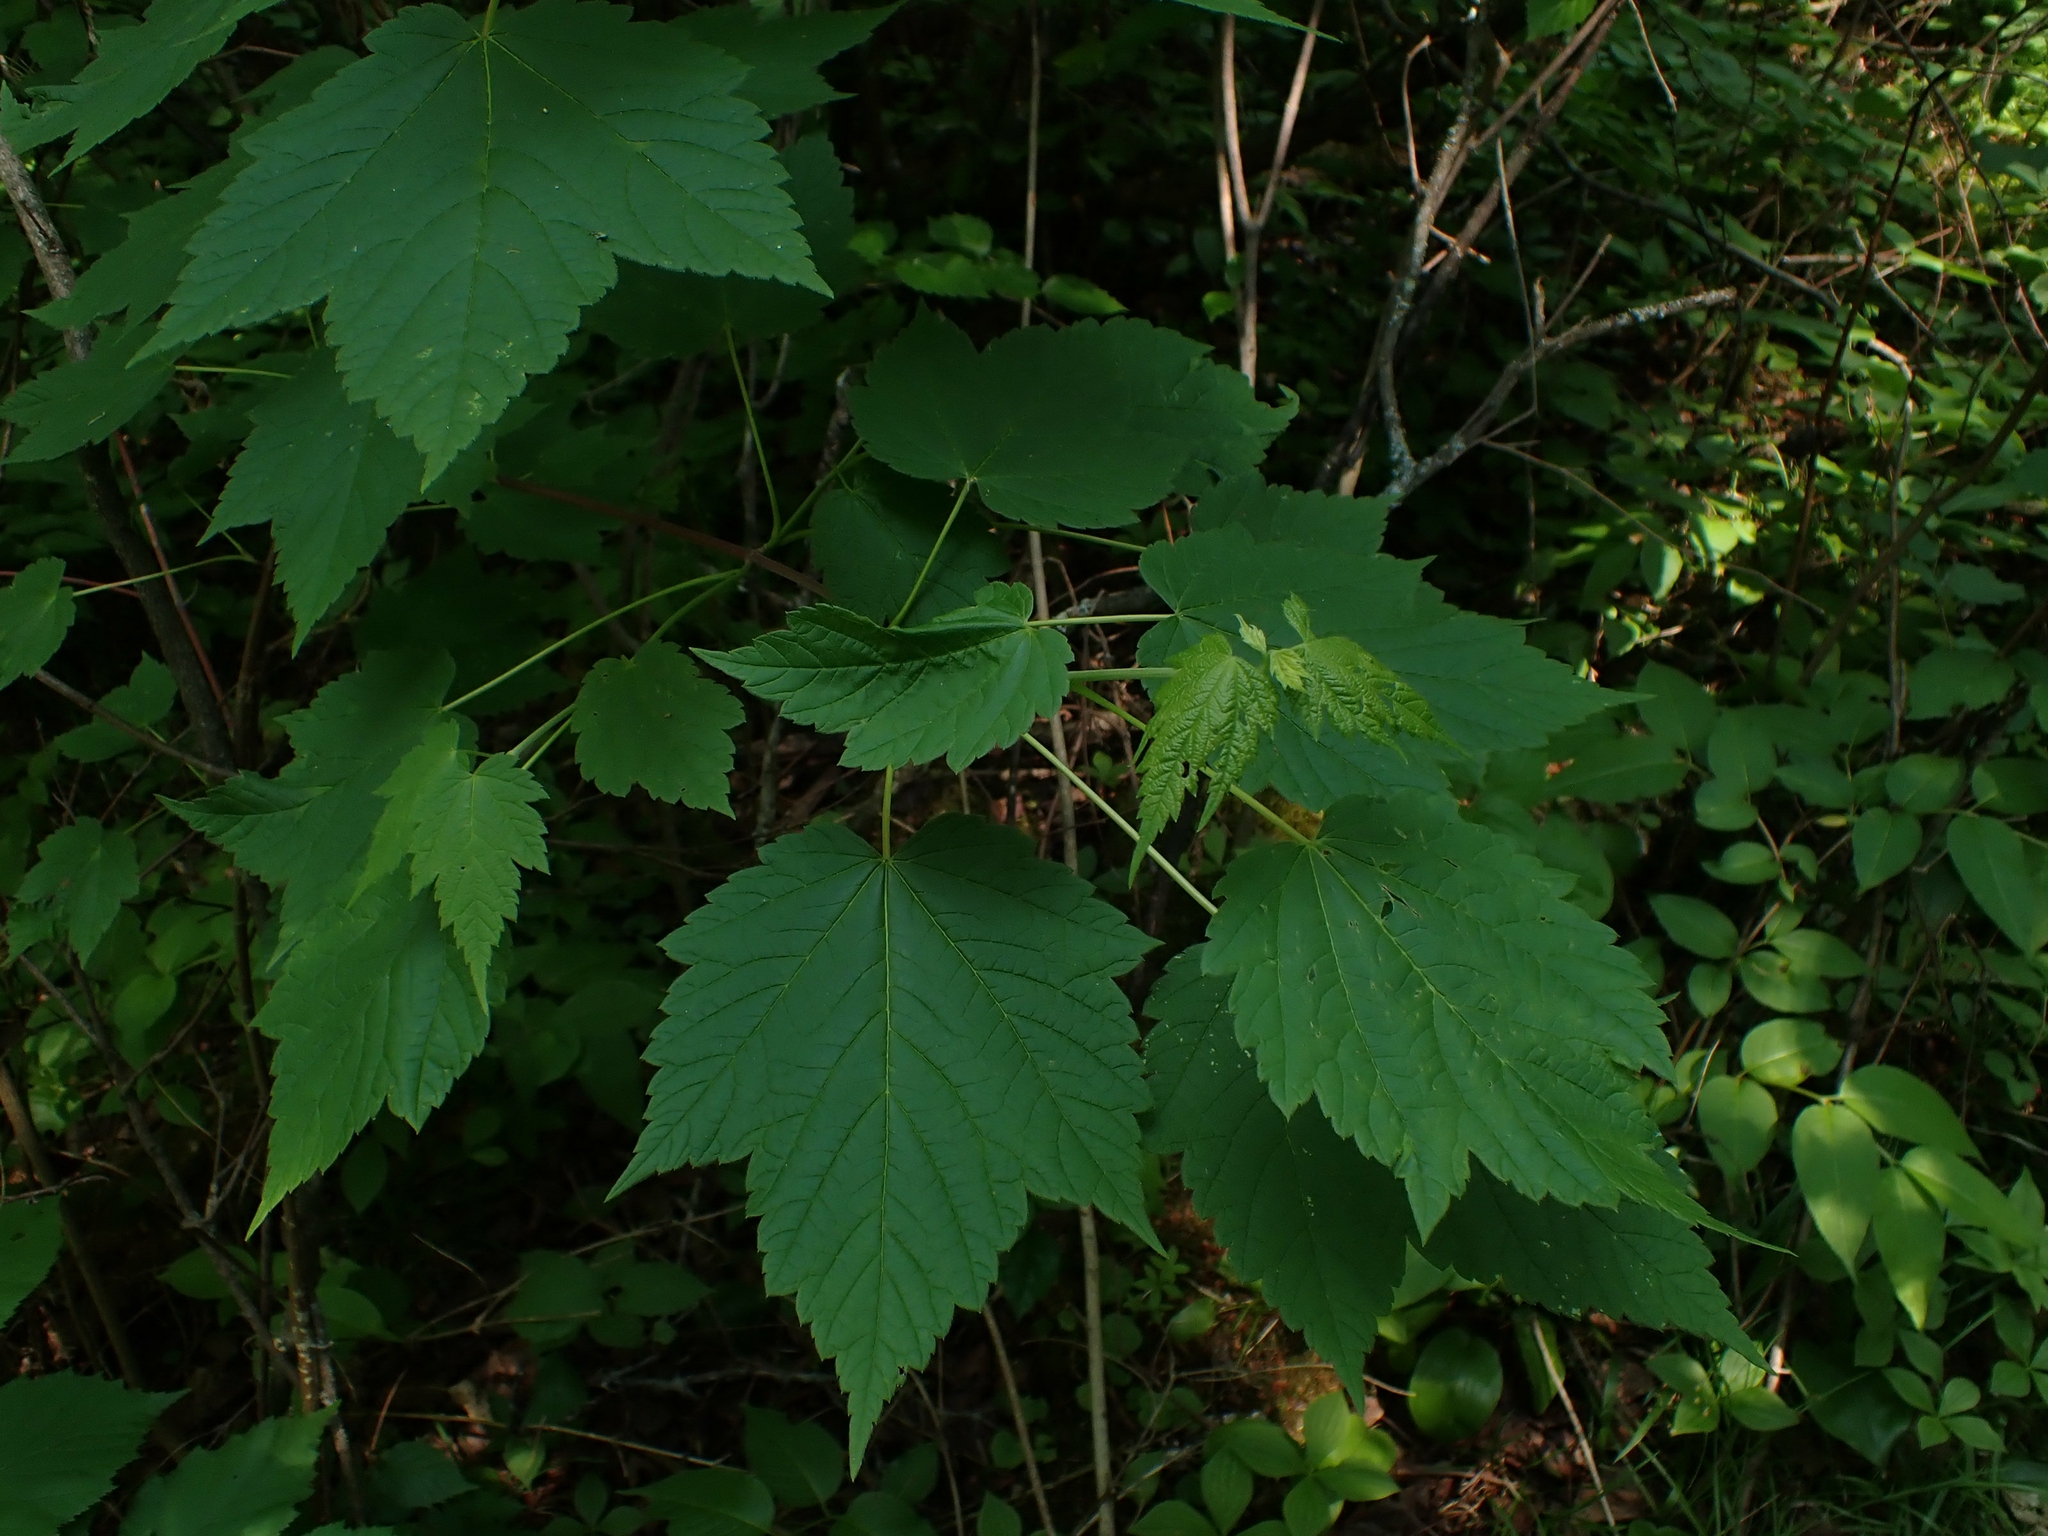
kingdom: Plantae
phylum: Tracheophyta
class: Magnoliopsida
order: Sapindales
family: Sapindaceae
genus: Acer
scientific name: Acer spicatum
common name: Mountain maple
